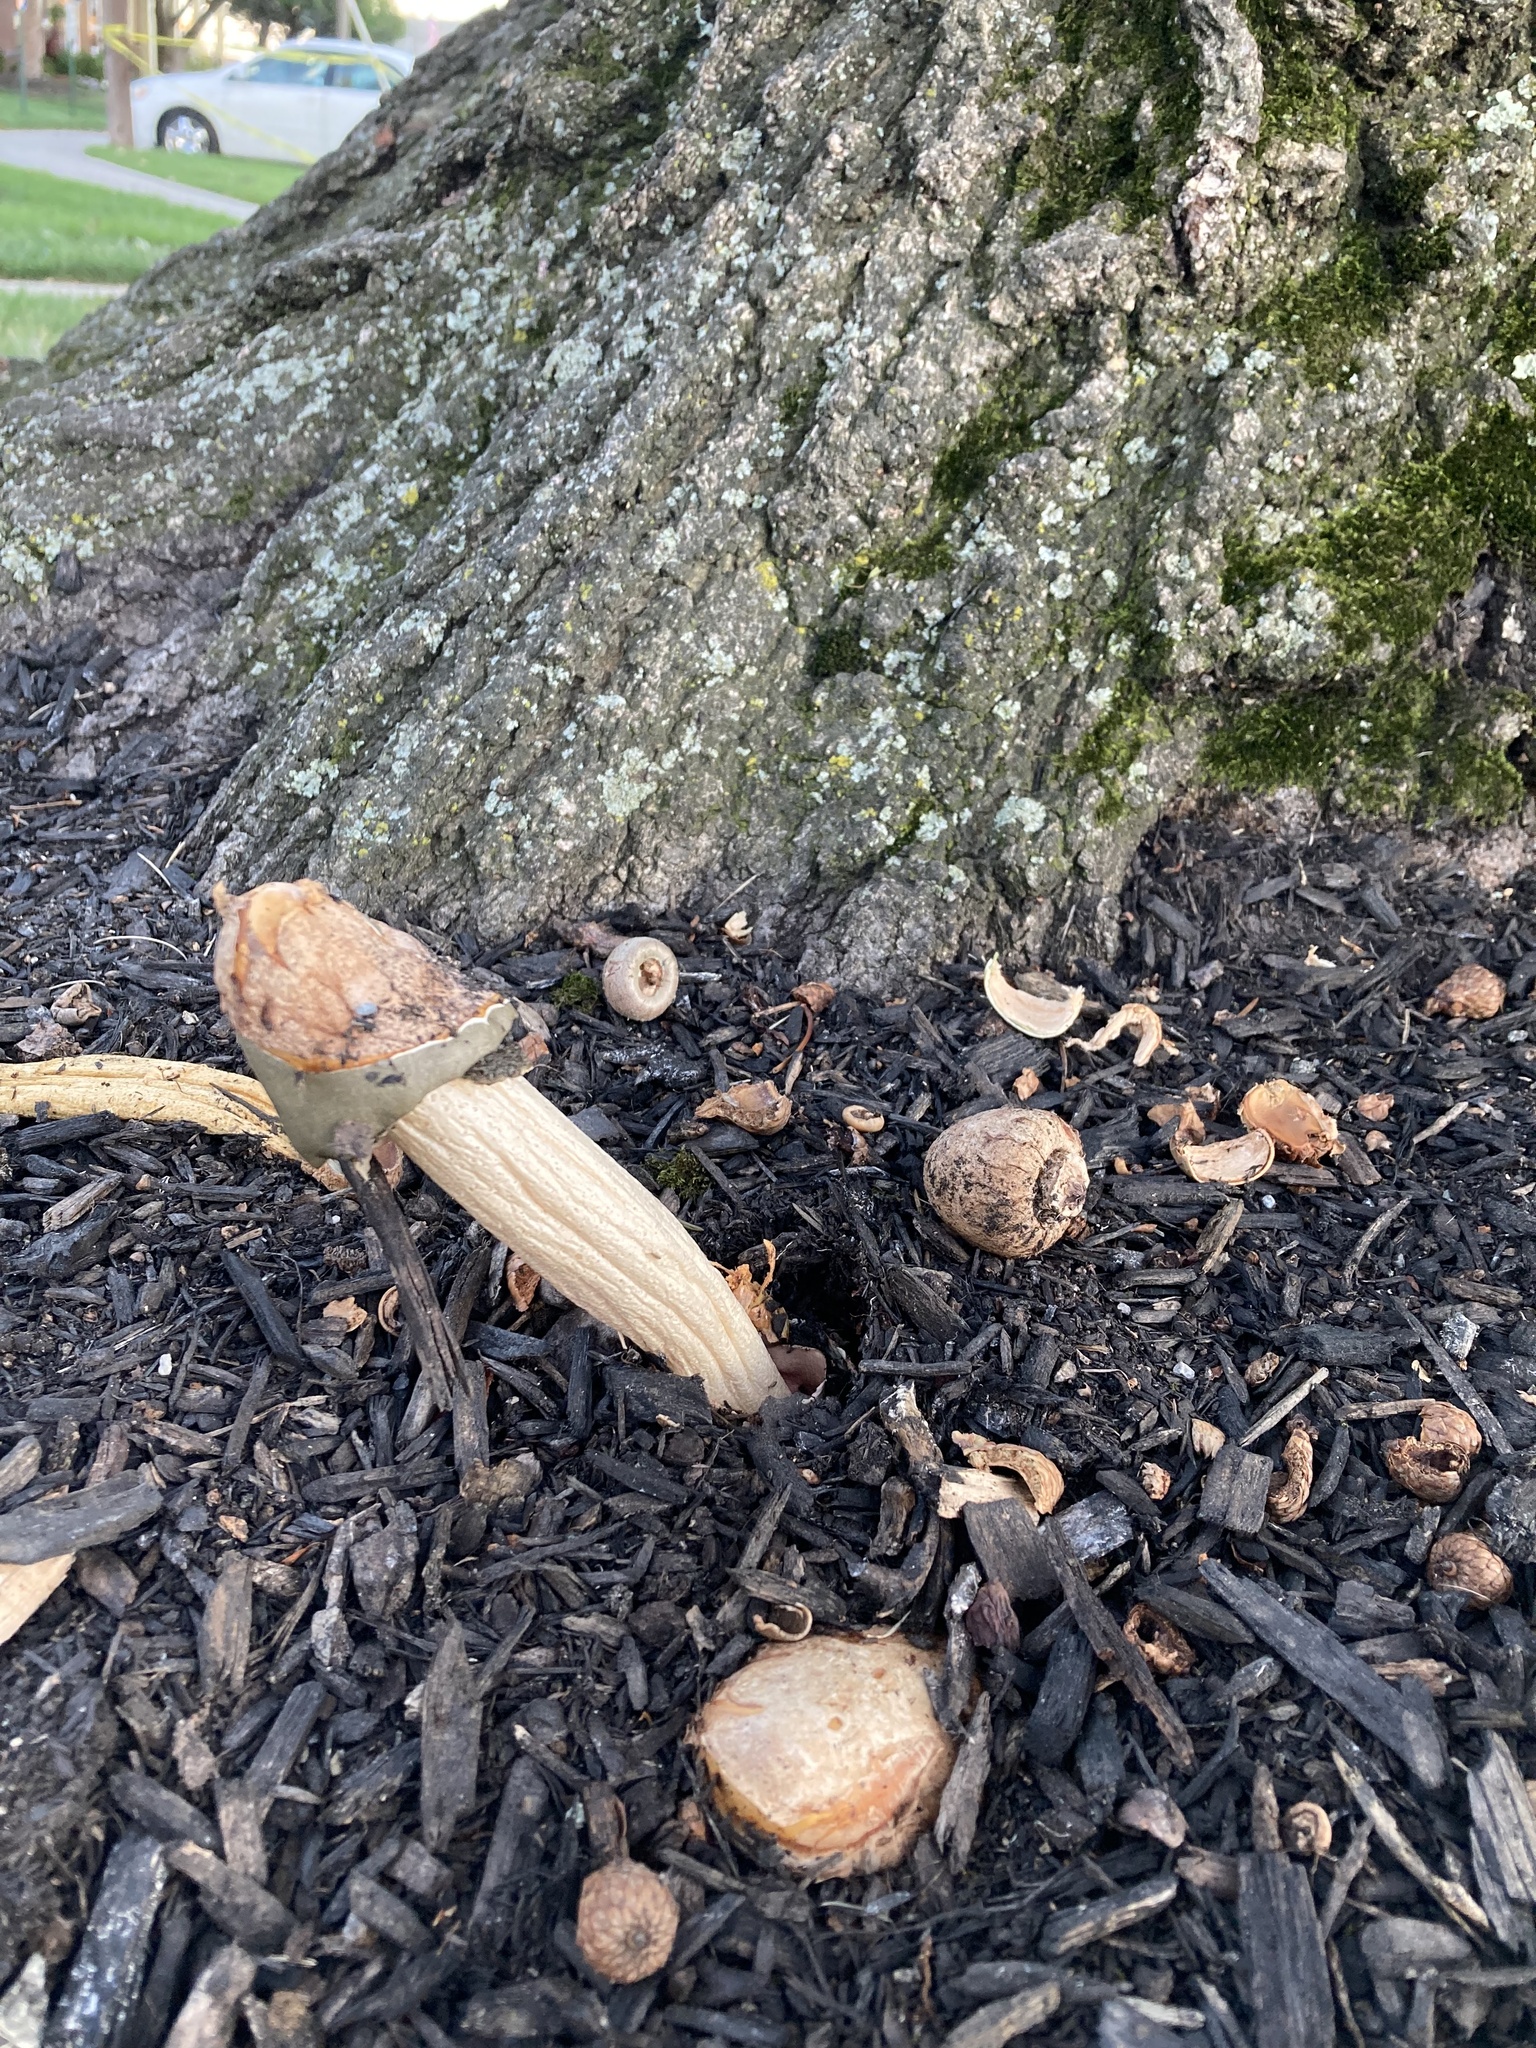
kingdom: Fungi
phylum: Basidiomycota
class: Agaricomycetes
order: Phallales
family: Phallaceae
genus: Phallus
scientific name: Phallus ravenelii
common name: Ravenel's stinkhorn
